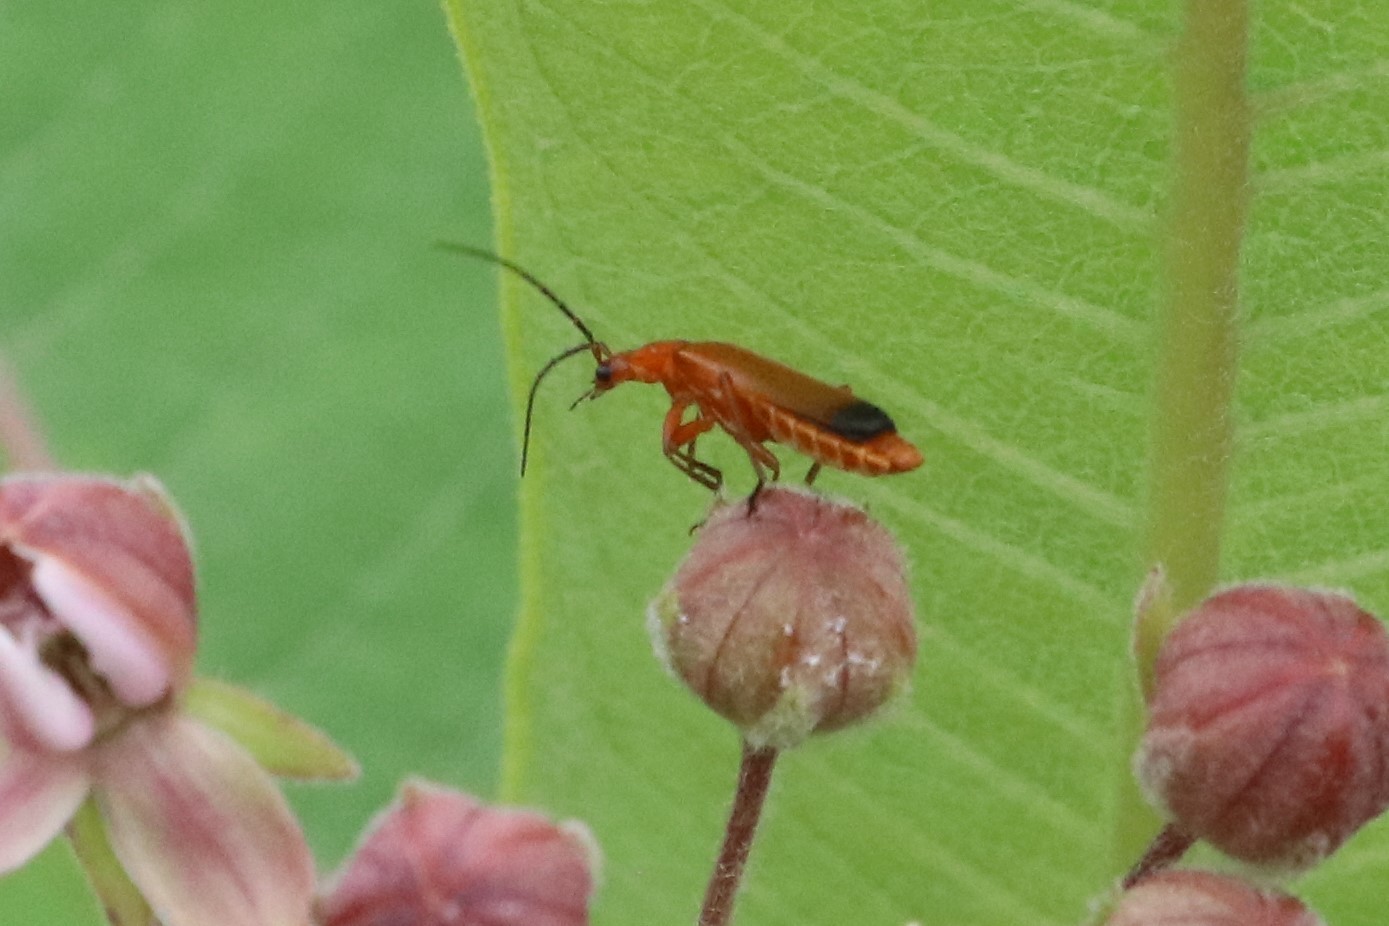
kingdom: Animalia
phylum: Arthropoda
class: Insecta
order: Coleoptera
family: Cantharidae
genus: Rhagonycha
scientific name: Rhagonycha fulva
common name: Common red soldier beetle
